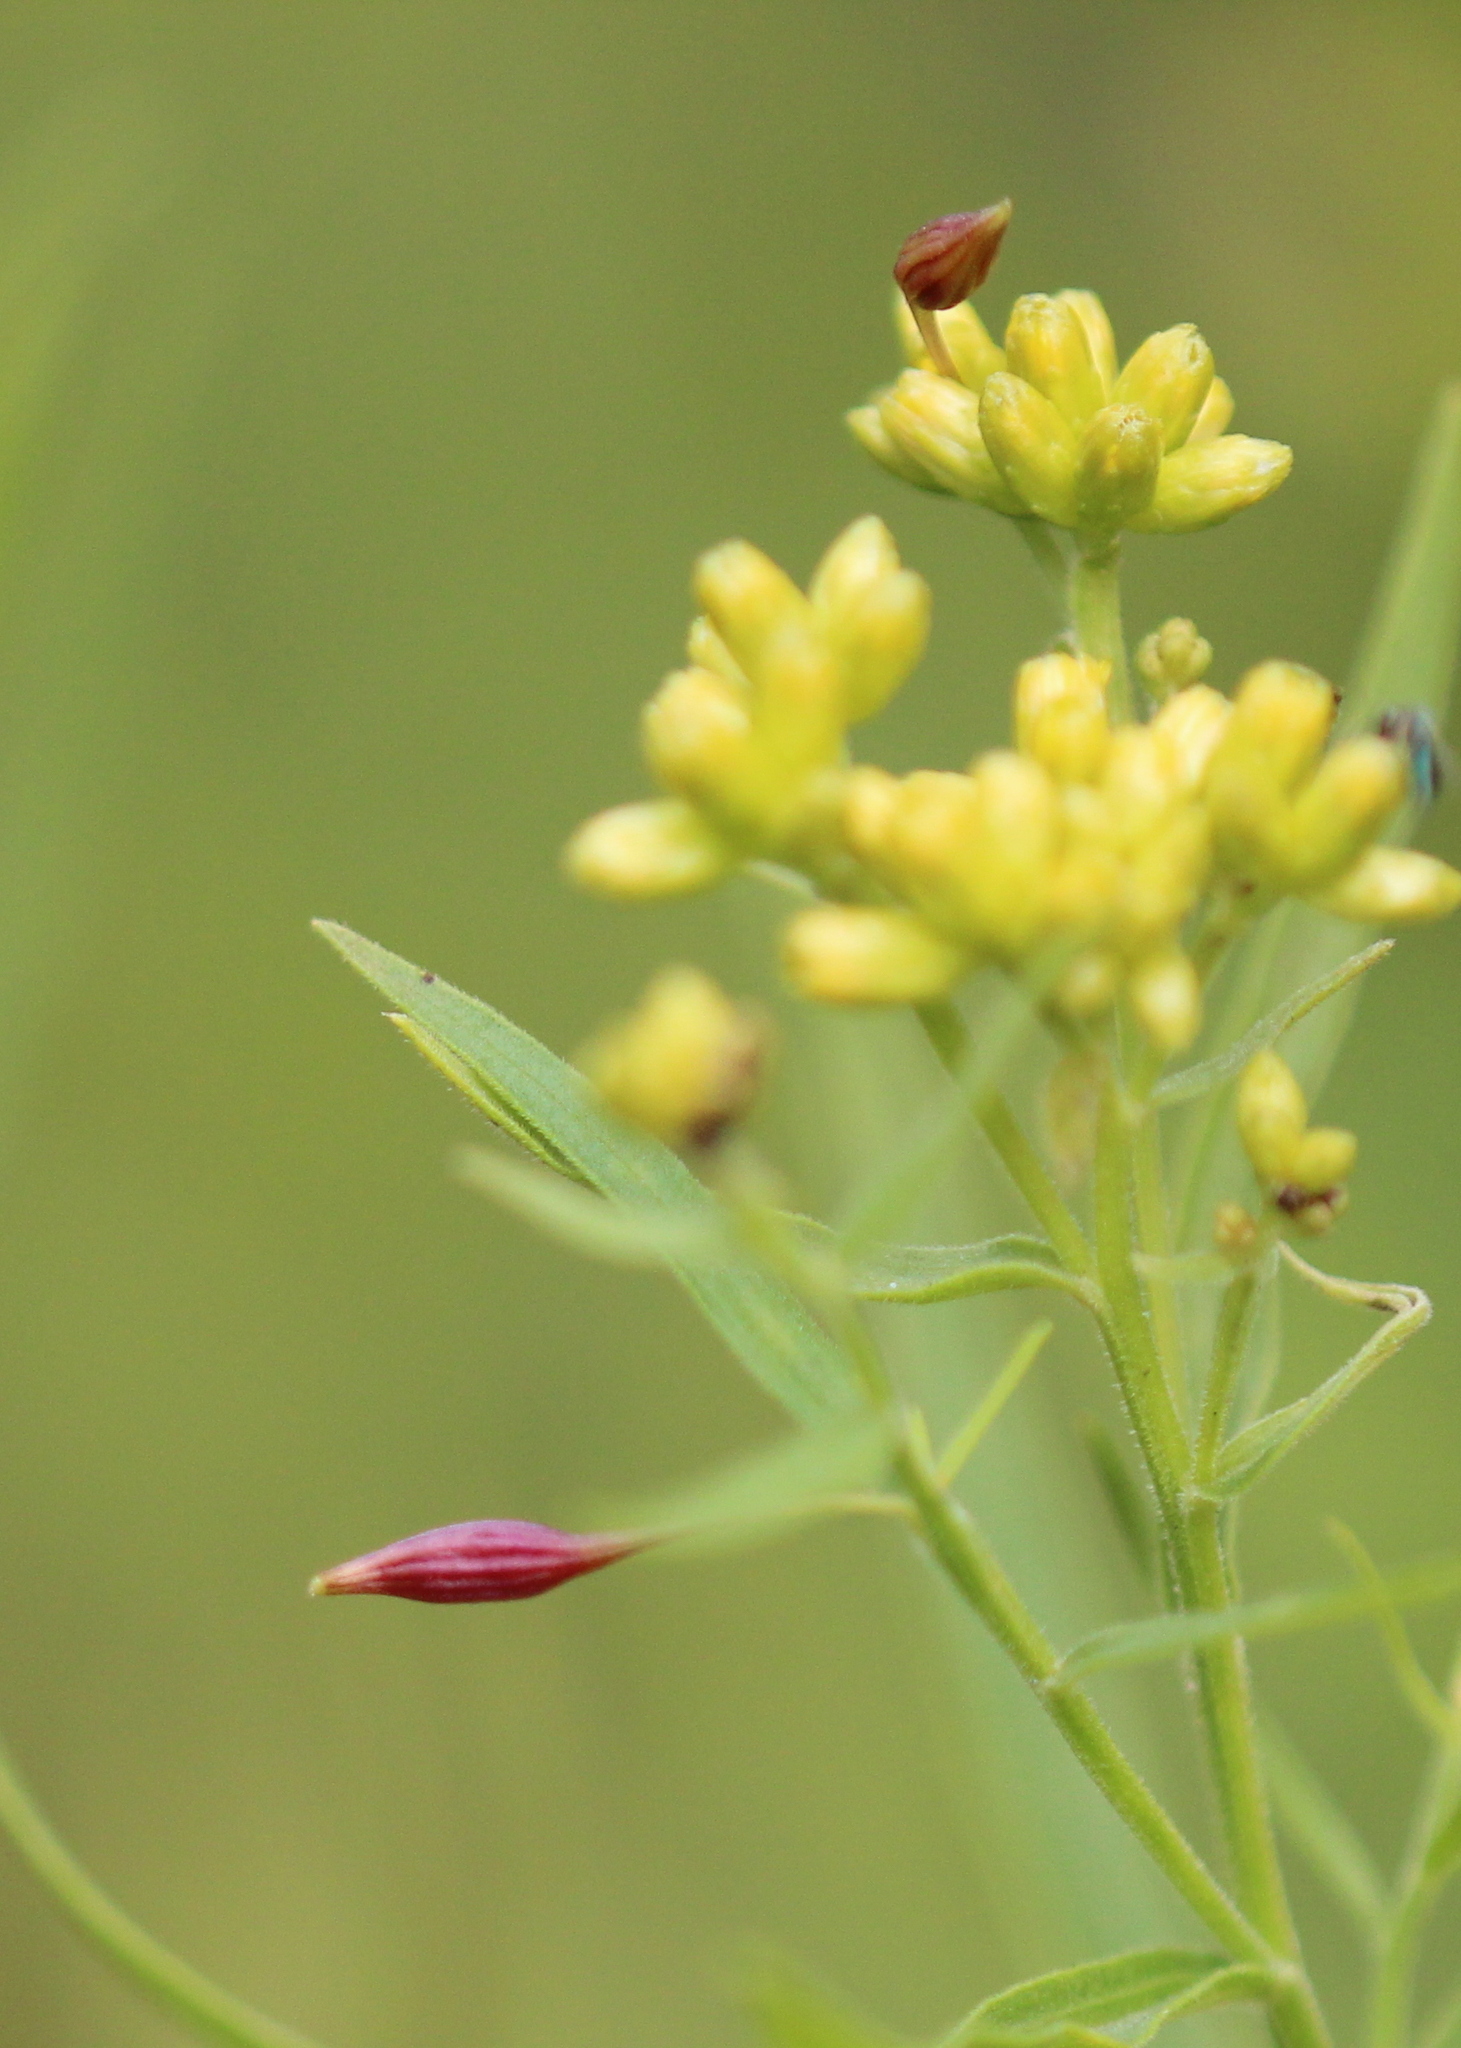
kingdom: Animalia
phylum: Arthropoda
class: Insecta
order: Diptera
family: Cecidomyiidae
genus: Rhopalomyia
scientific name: Rhopalomyia pedicellata
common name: Goldentop pedicellate gall midge
